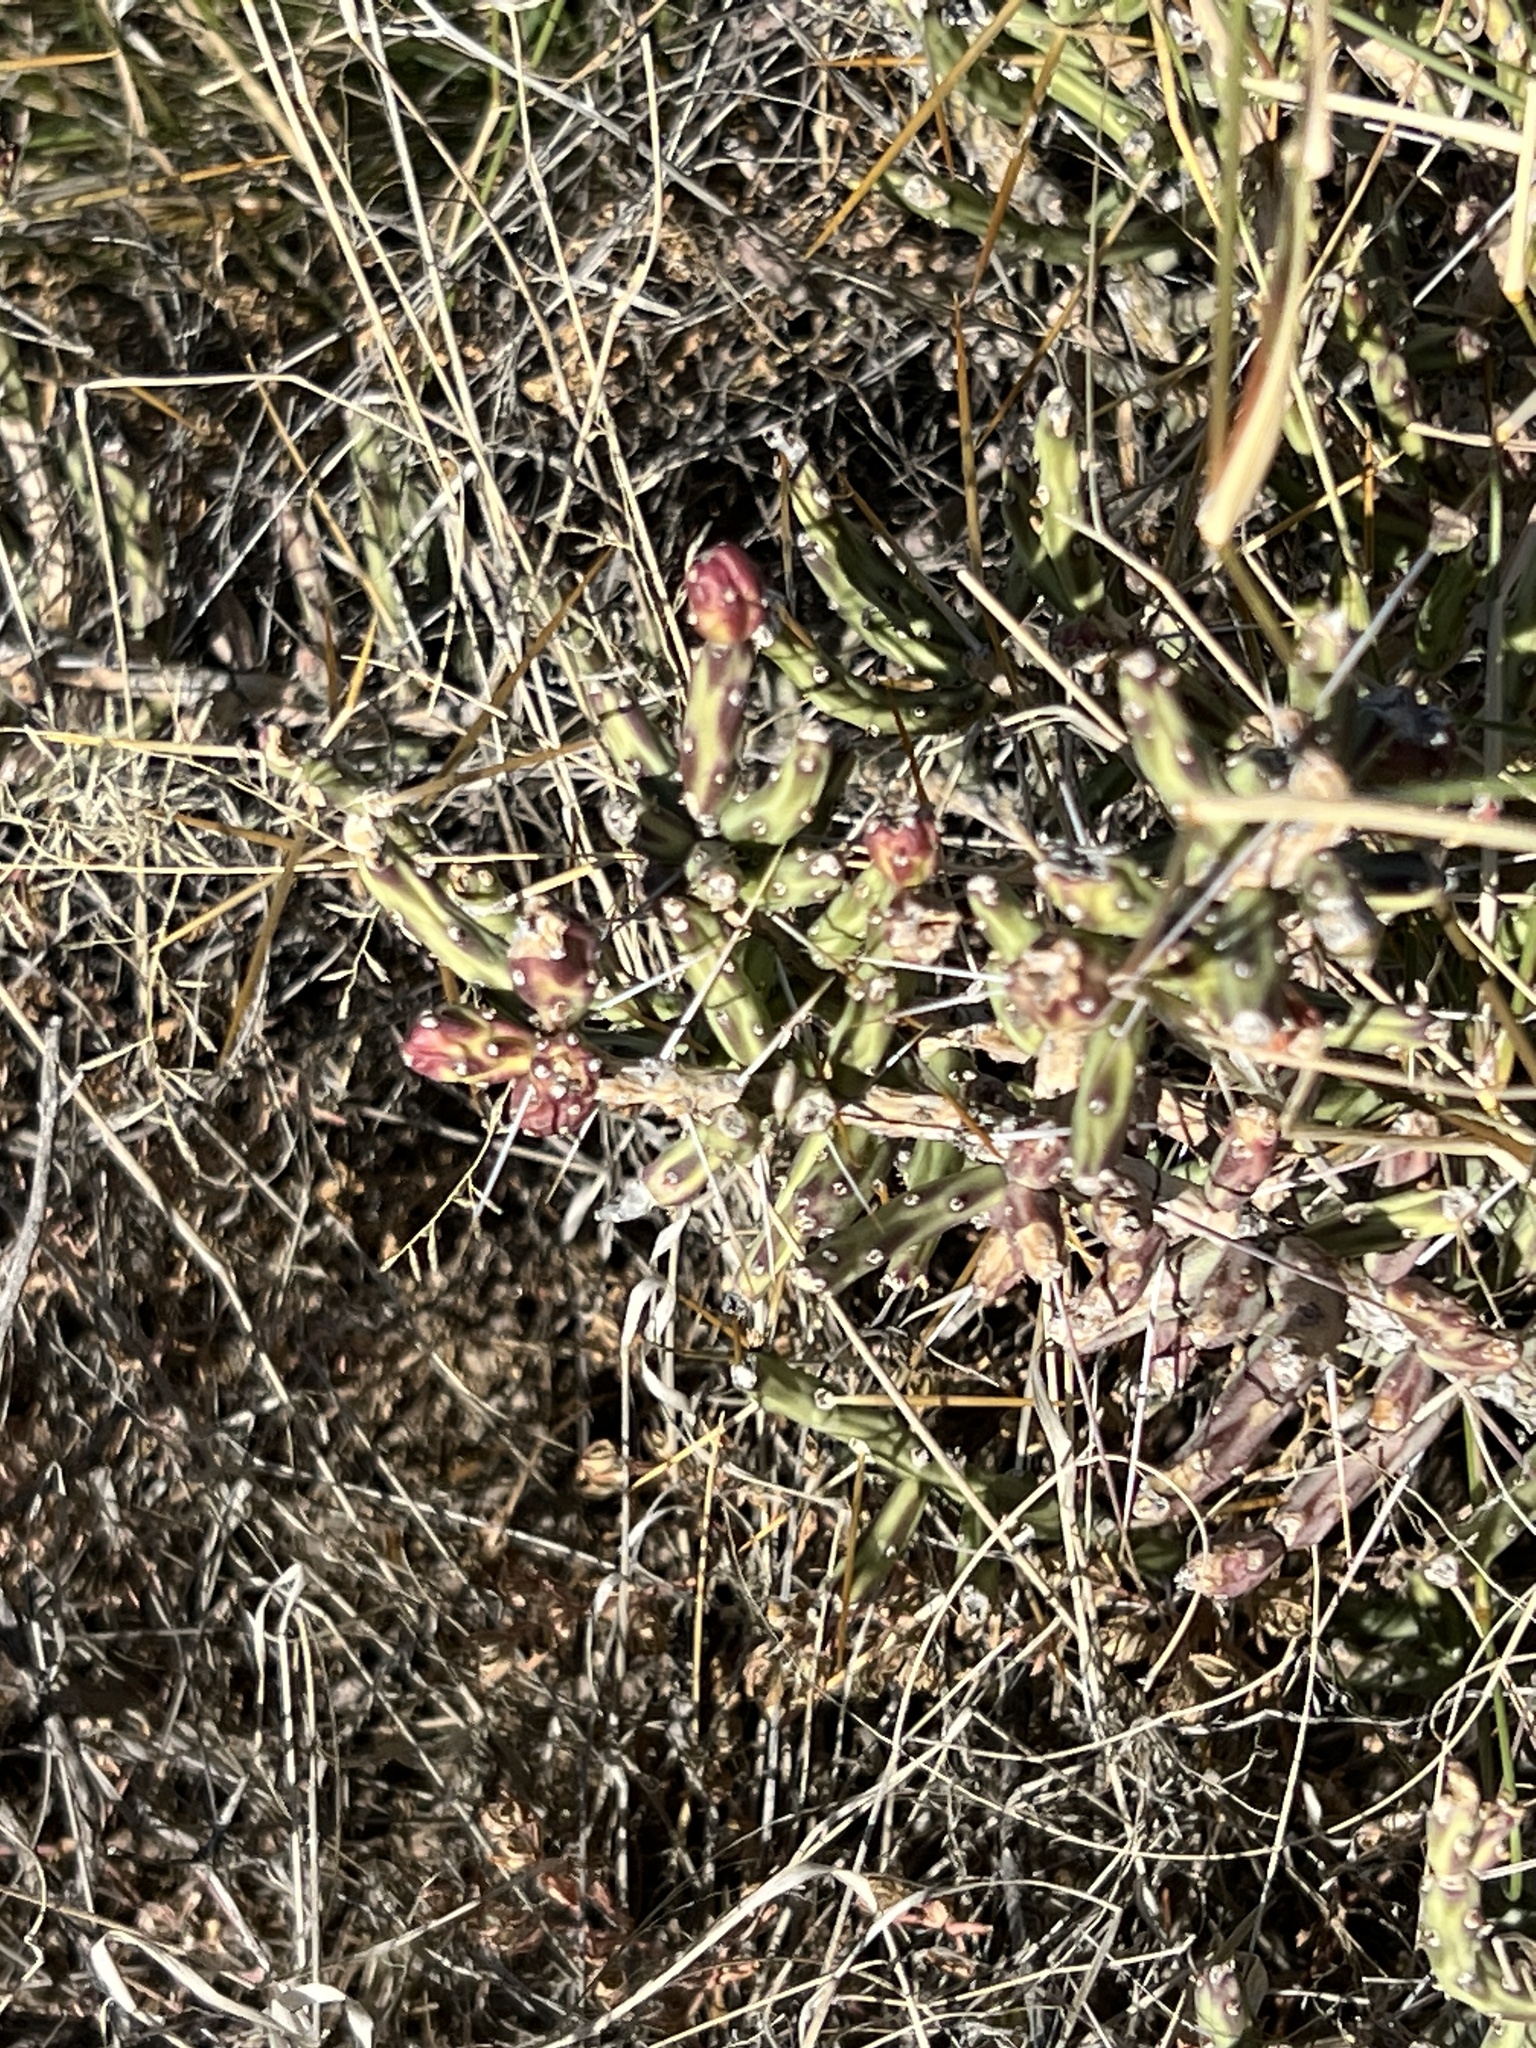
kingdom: Plantae
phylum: Tracheophyta
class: Magnoliopsida
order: Caryophyllales
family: Cactaceae
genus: Cylindropuntia
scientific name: Cylindropuntia leptocaulis
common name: Christmas cactus
